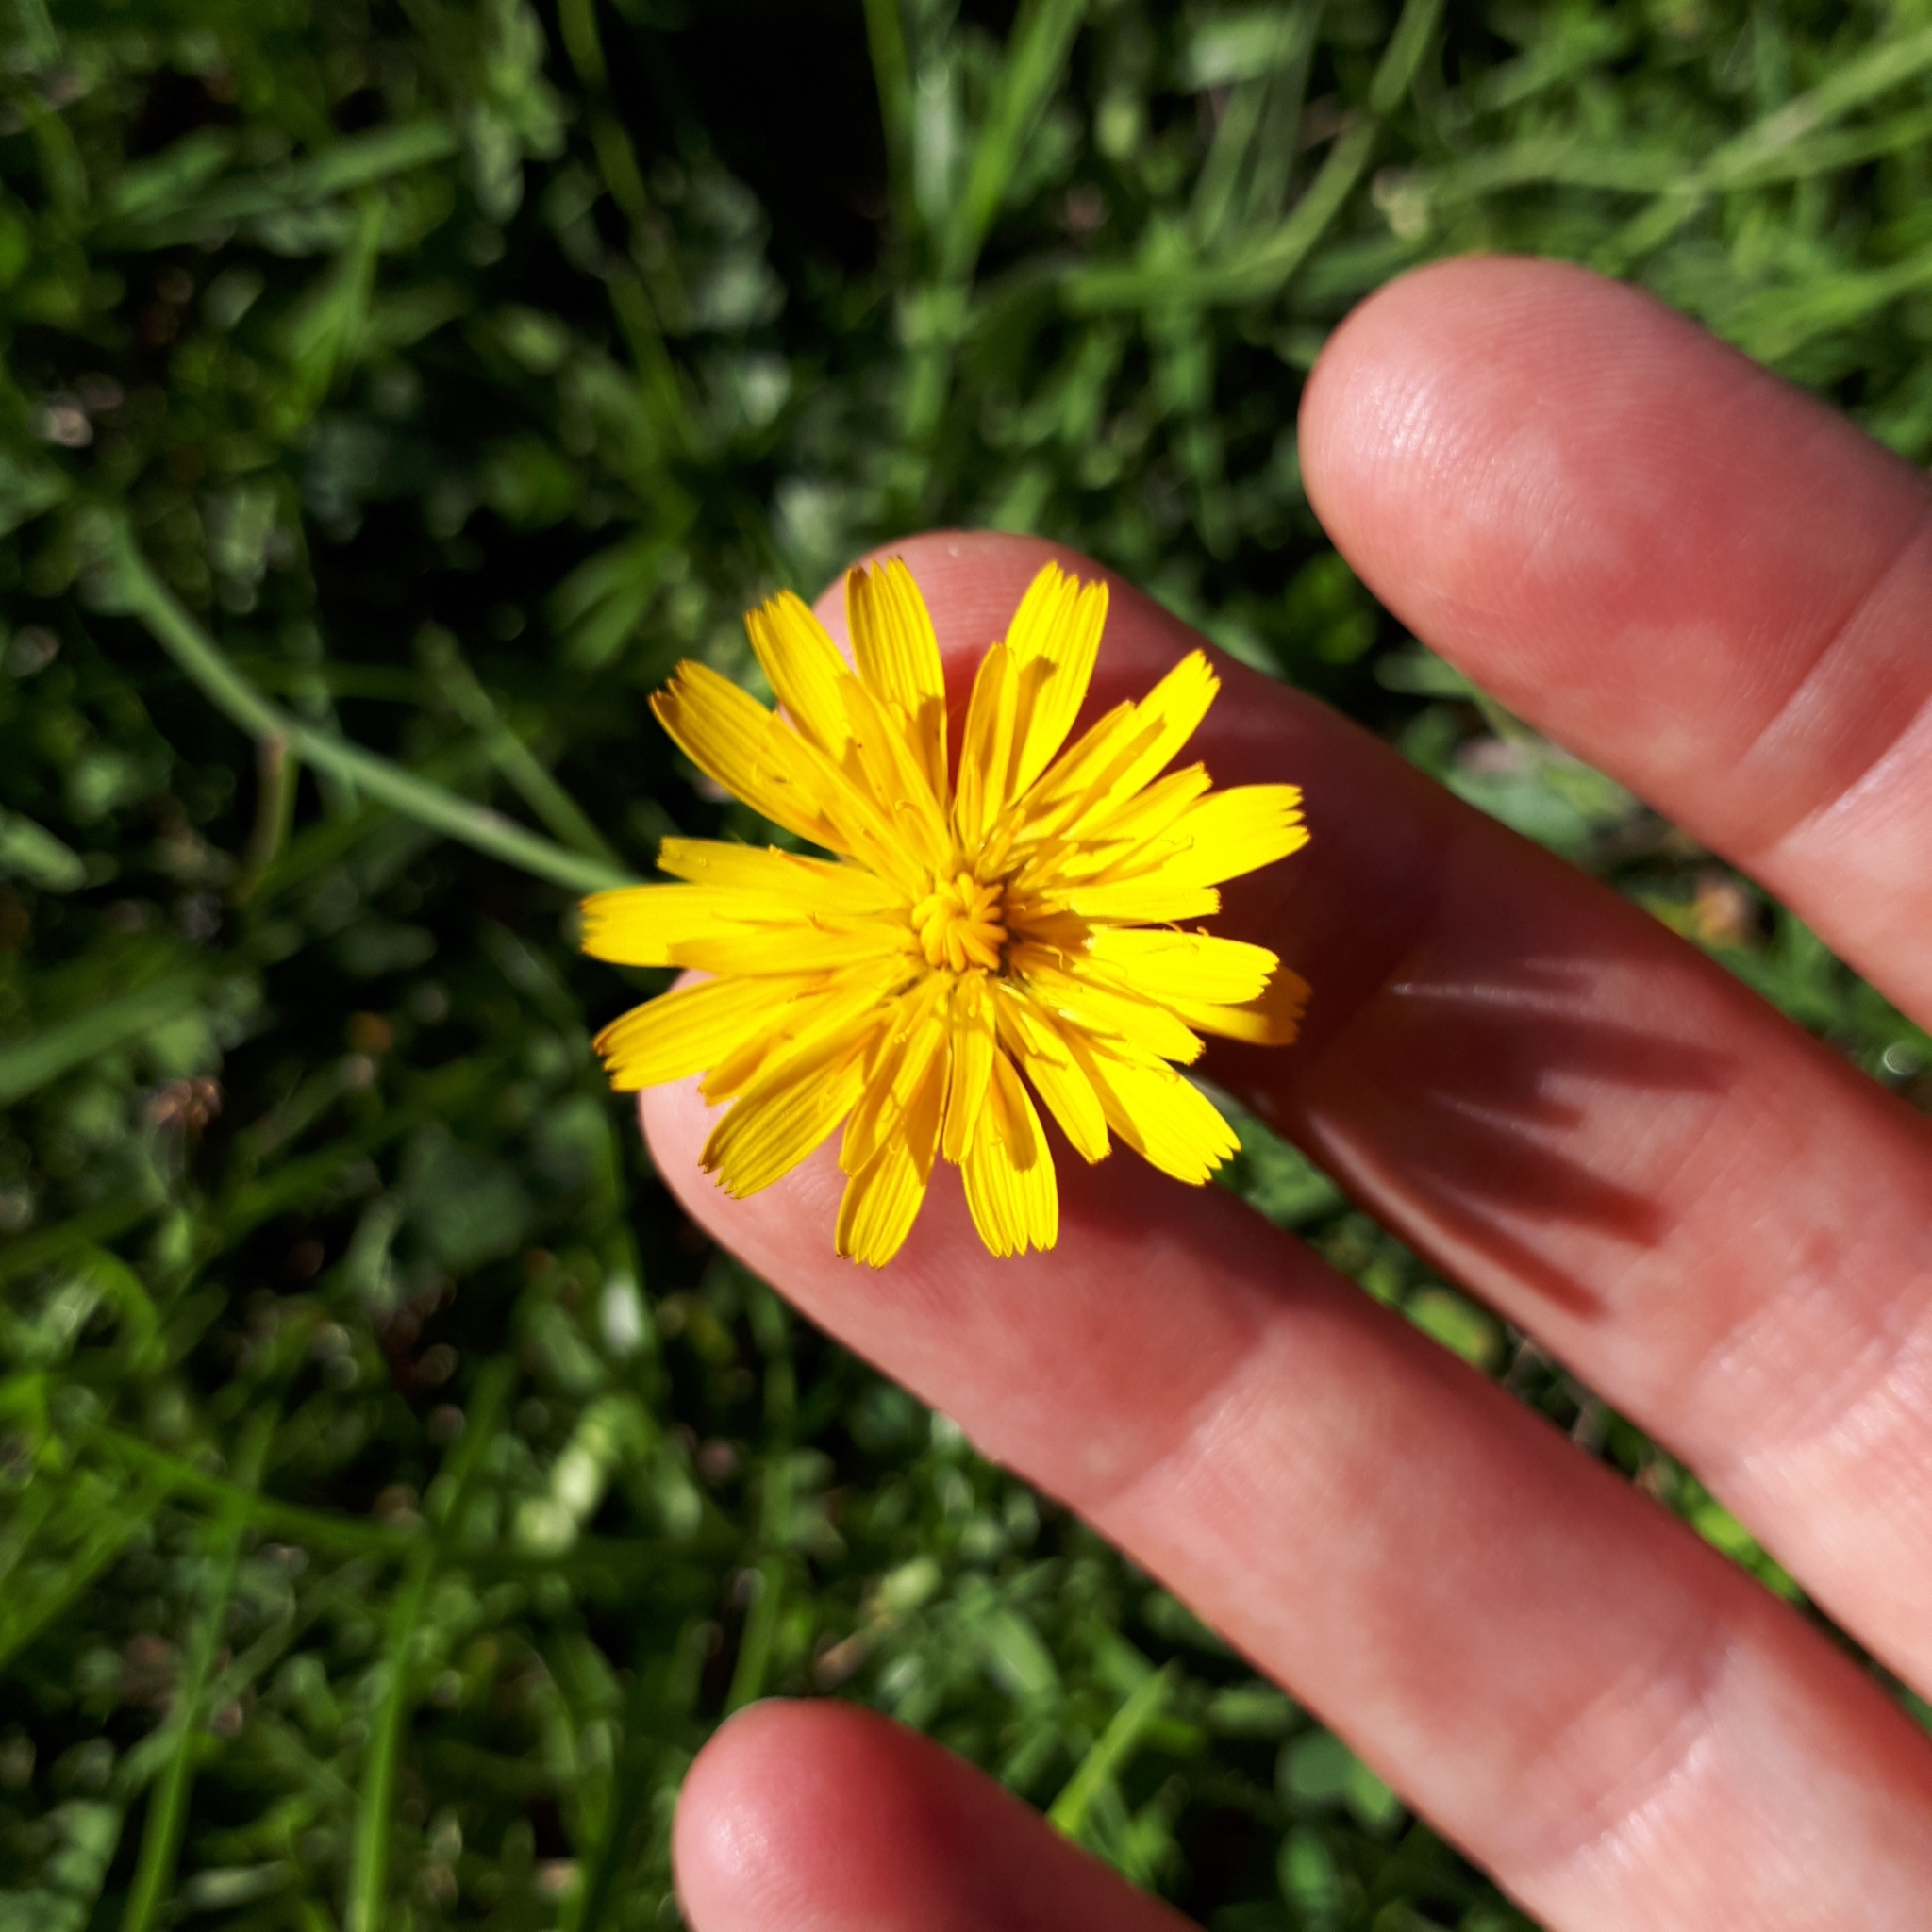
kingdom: Plantae
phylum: Tracheophyta
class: Magnoliopsida
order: Asterales
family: Asteraceae
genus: Hypochaeris
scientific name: Hypochaeris radicata
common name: Flatweed
